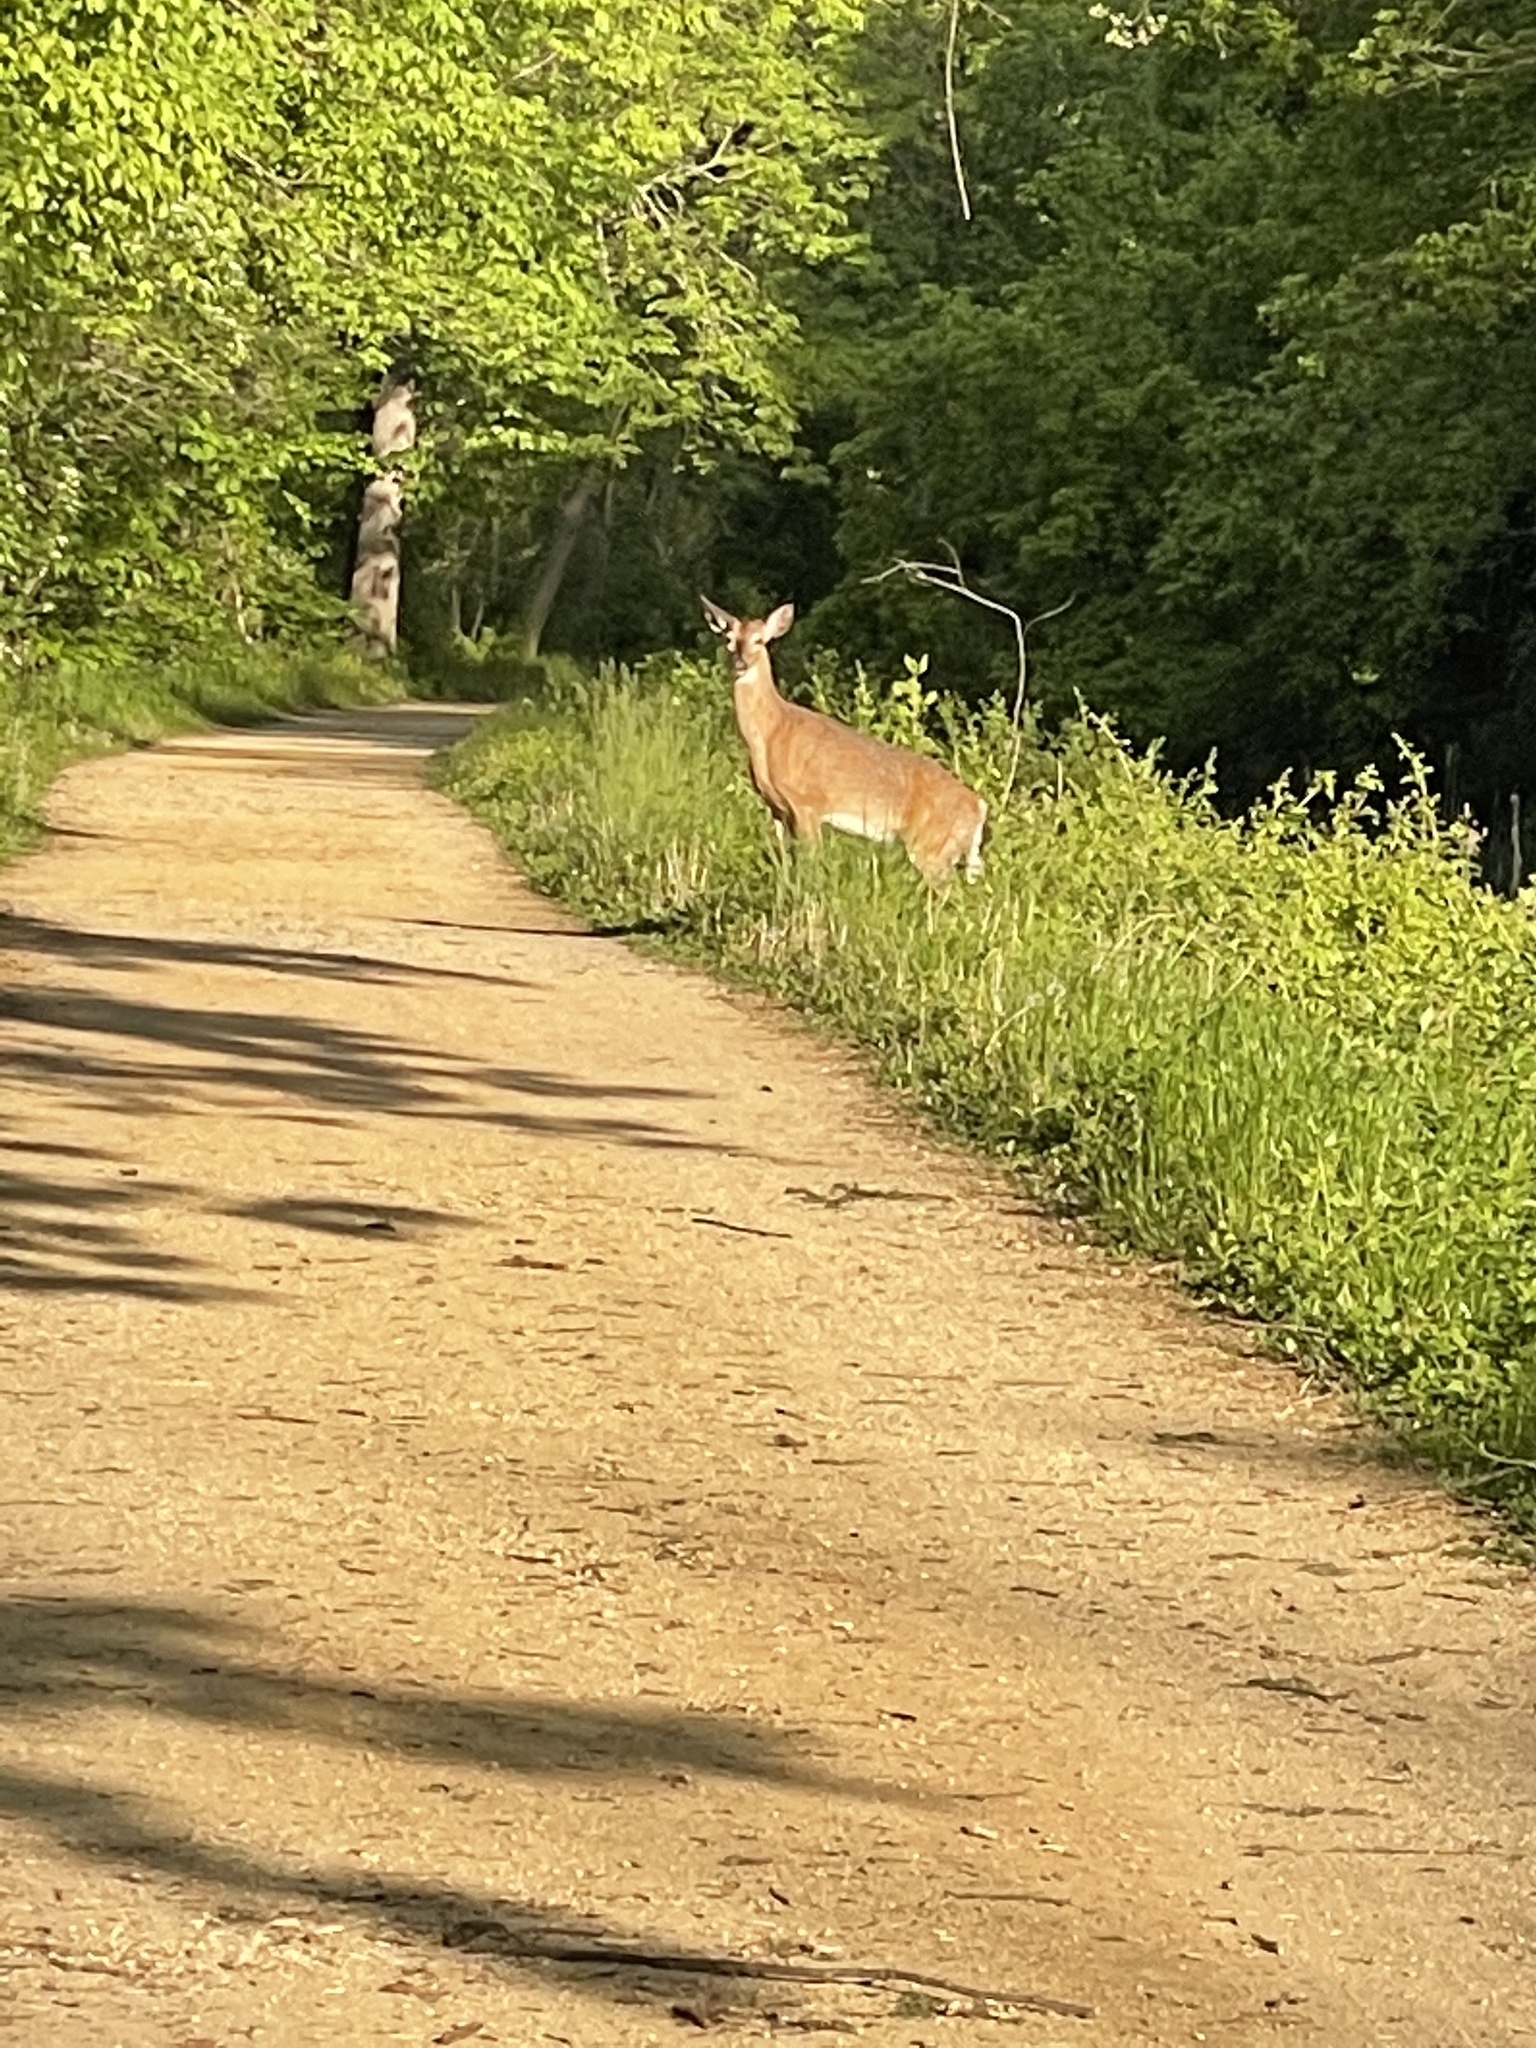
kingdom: Animalia
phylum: Chordata
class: Mammalia
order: Artiodactyla
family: Cervidae
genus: Odocoileus
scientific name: Odocoileus virginianus
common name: White-tailed deer
